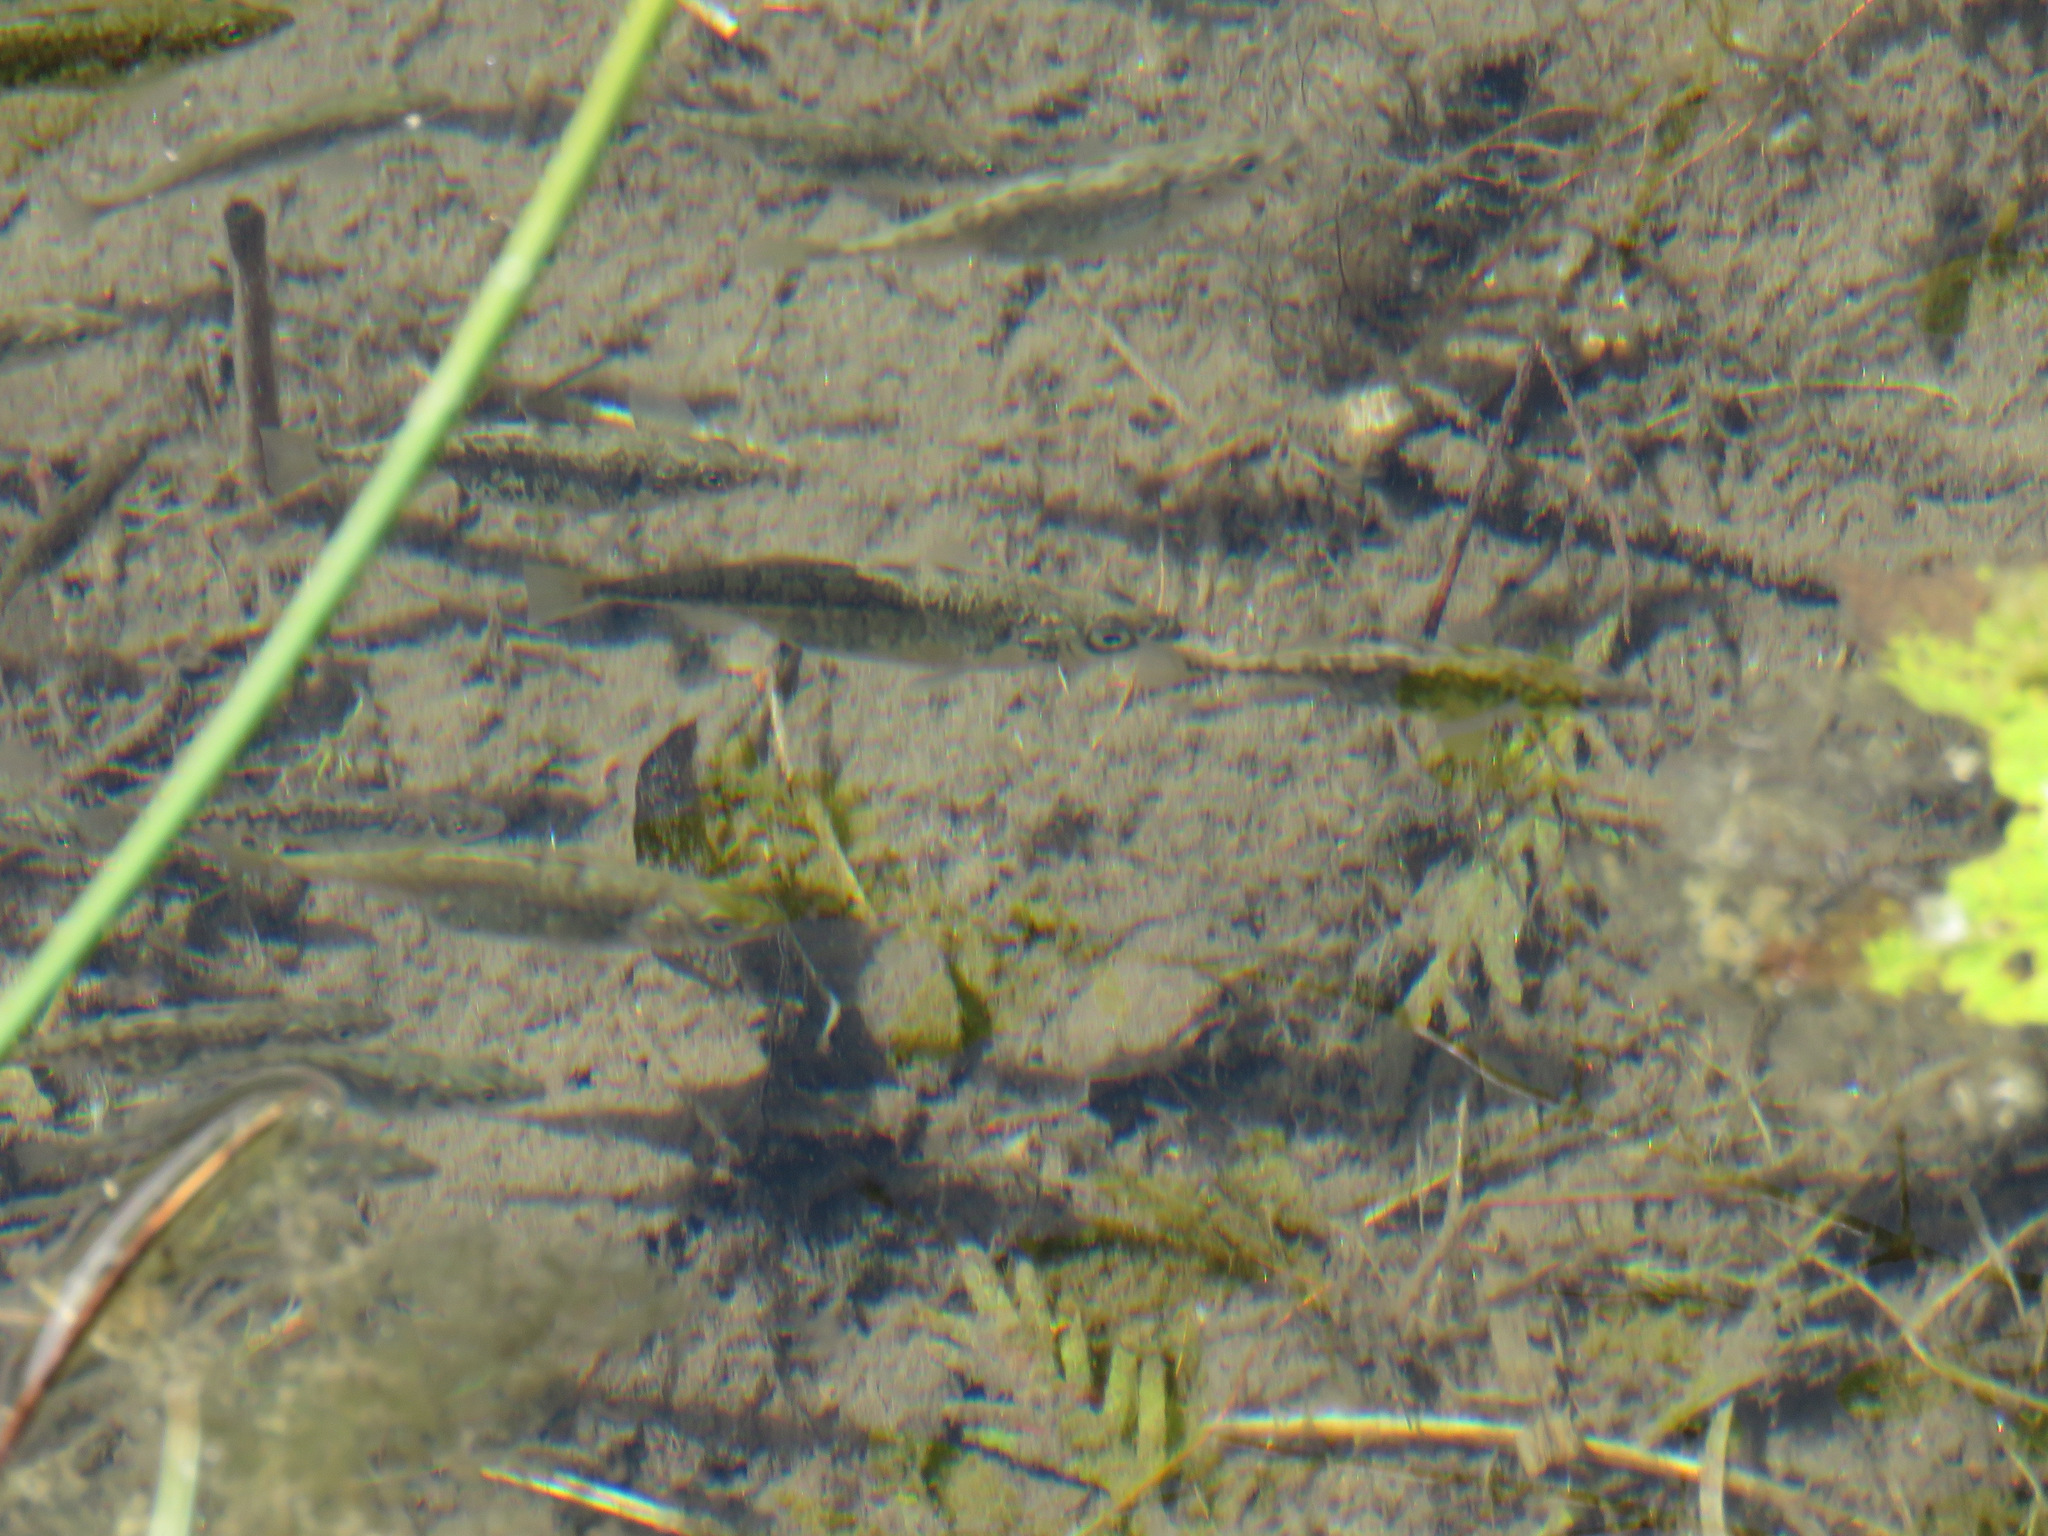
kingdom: Animalia
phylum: Chordata
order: Gasterosteiformes
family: Gasterosteidae
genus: Gasterosteus
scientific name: Gasterosteus aculeatus
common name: Three-spined stickleback
